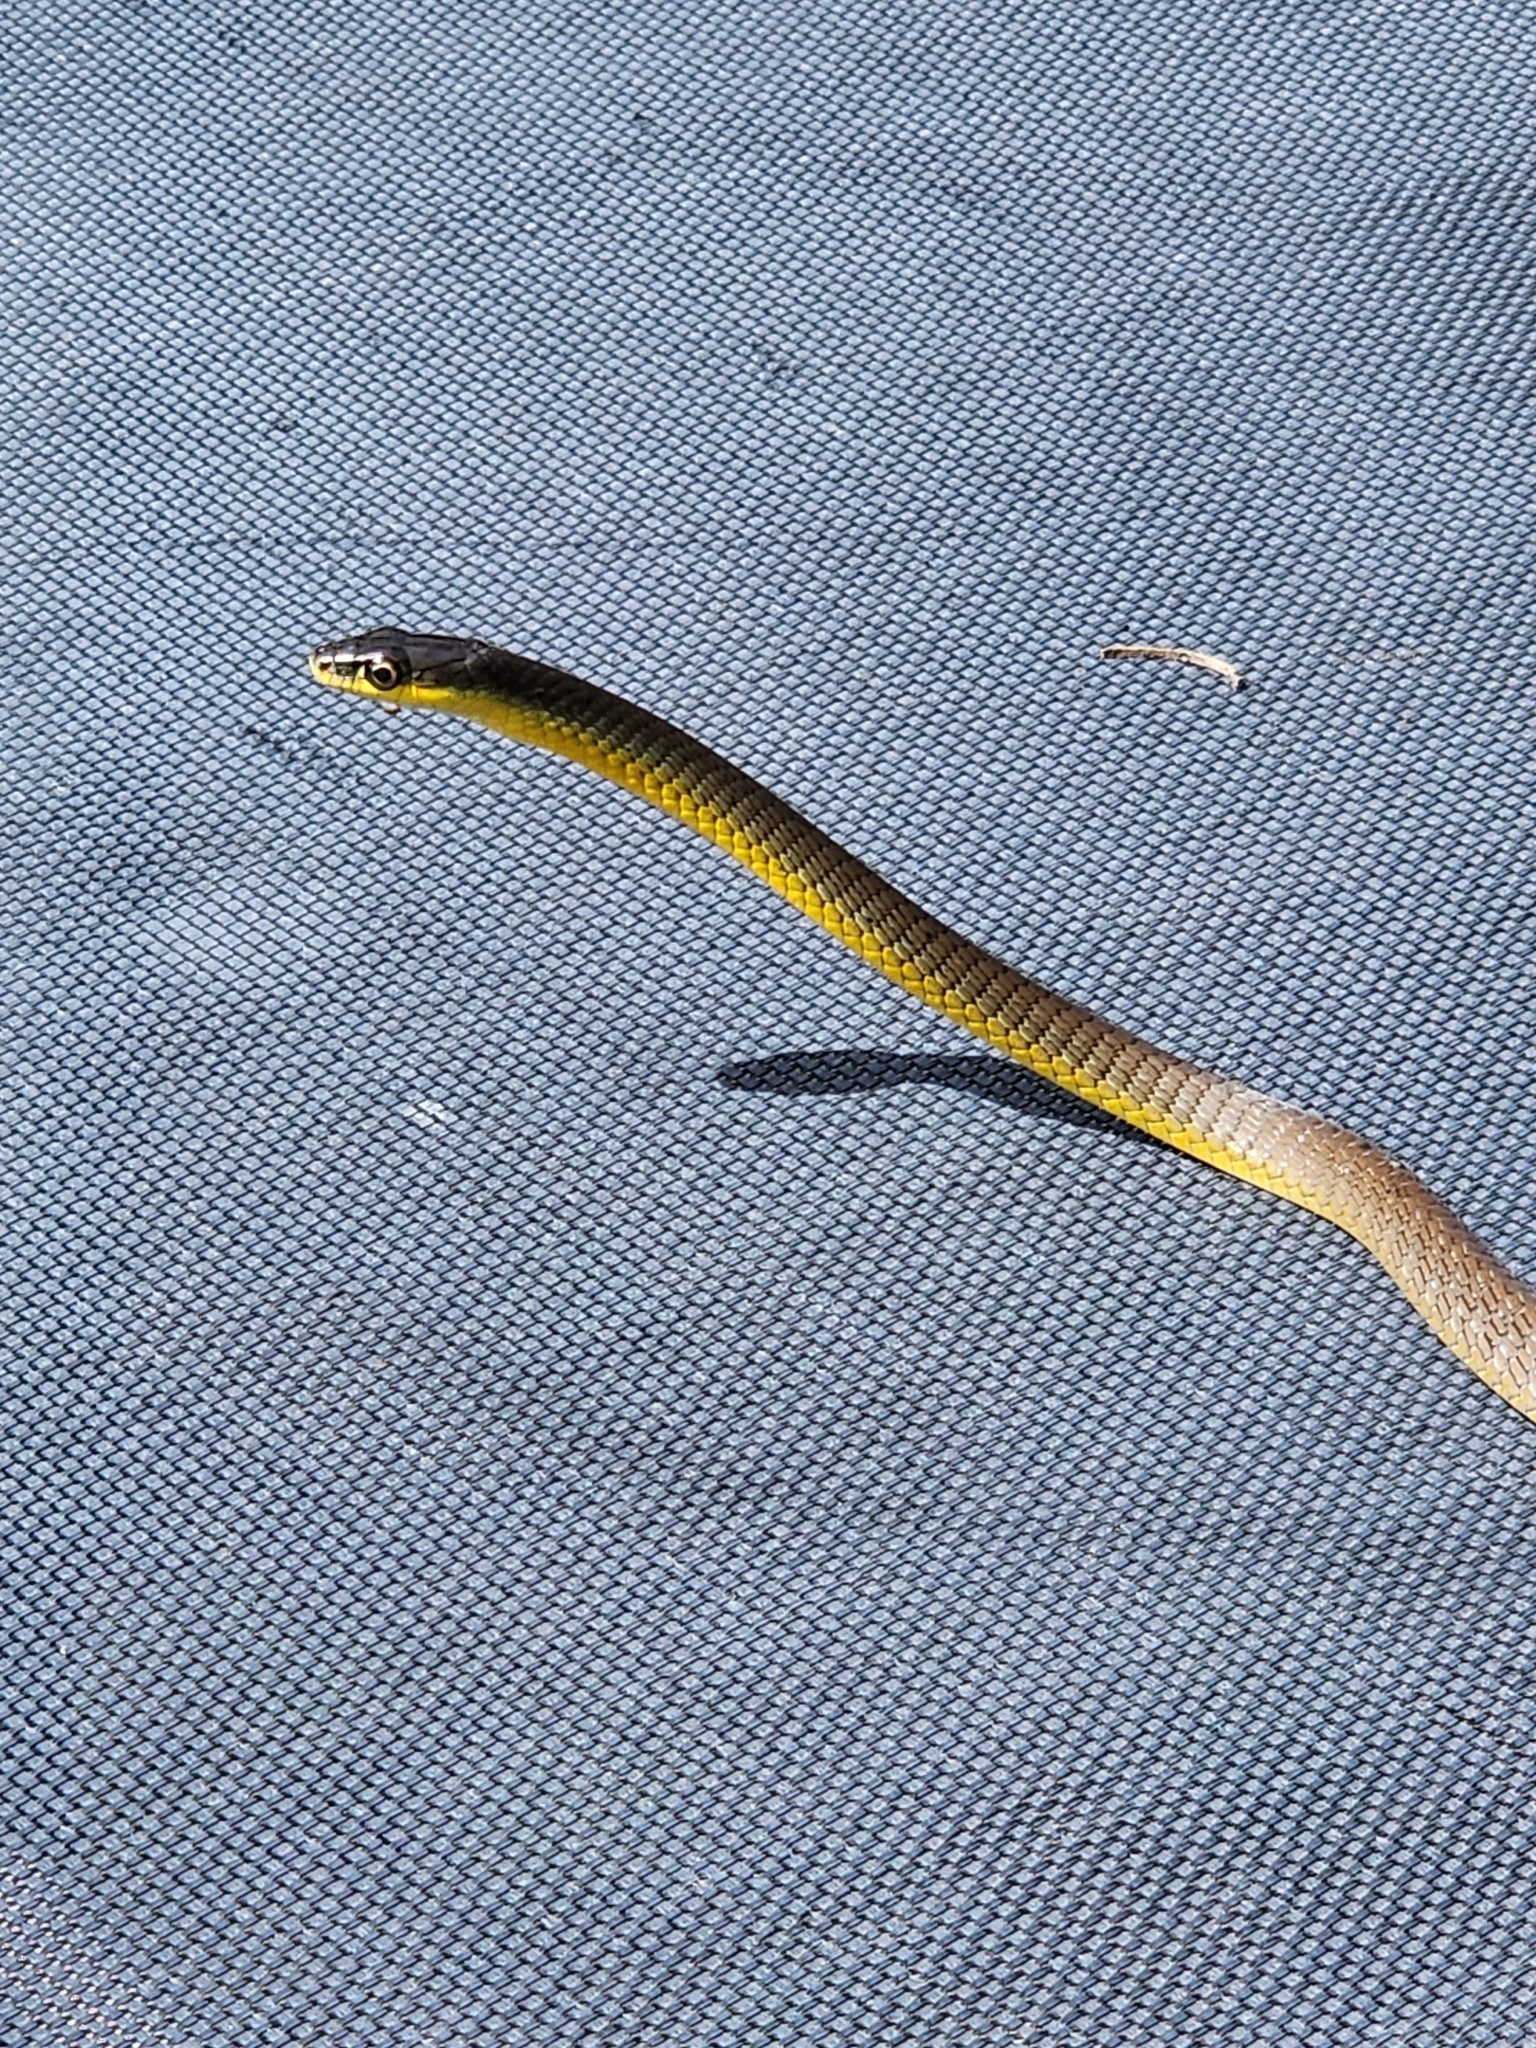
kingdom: Animalia
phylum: Chordata
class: Squamata
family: Colubridae
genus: Dendrelaphis
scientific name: Dendrelaphis punctulatus
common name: Common tree snake
